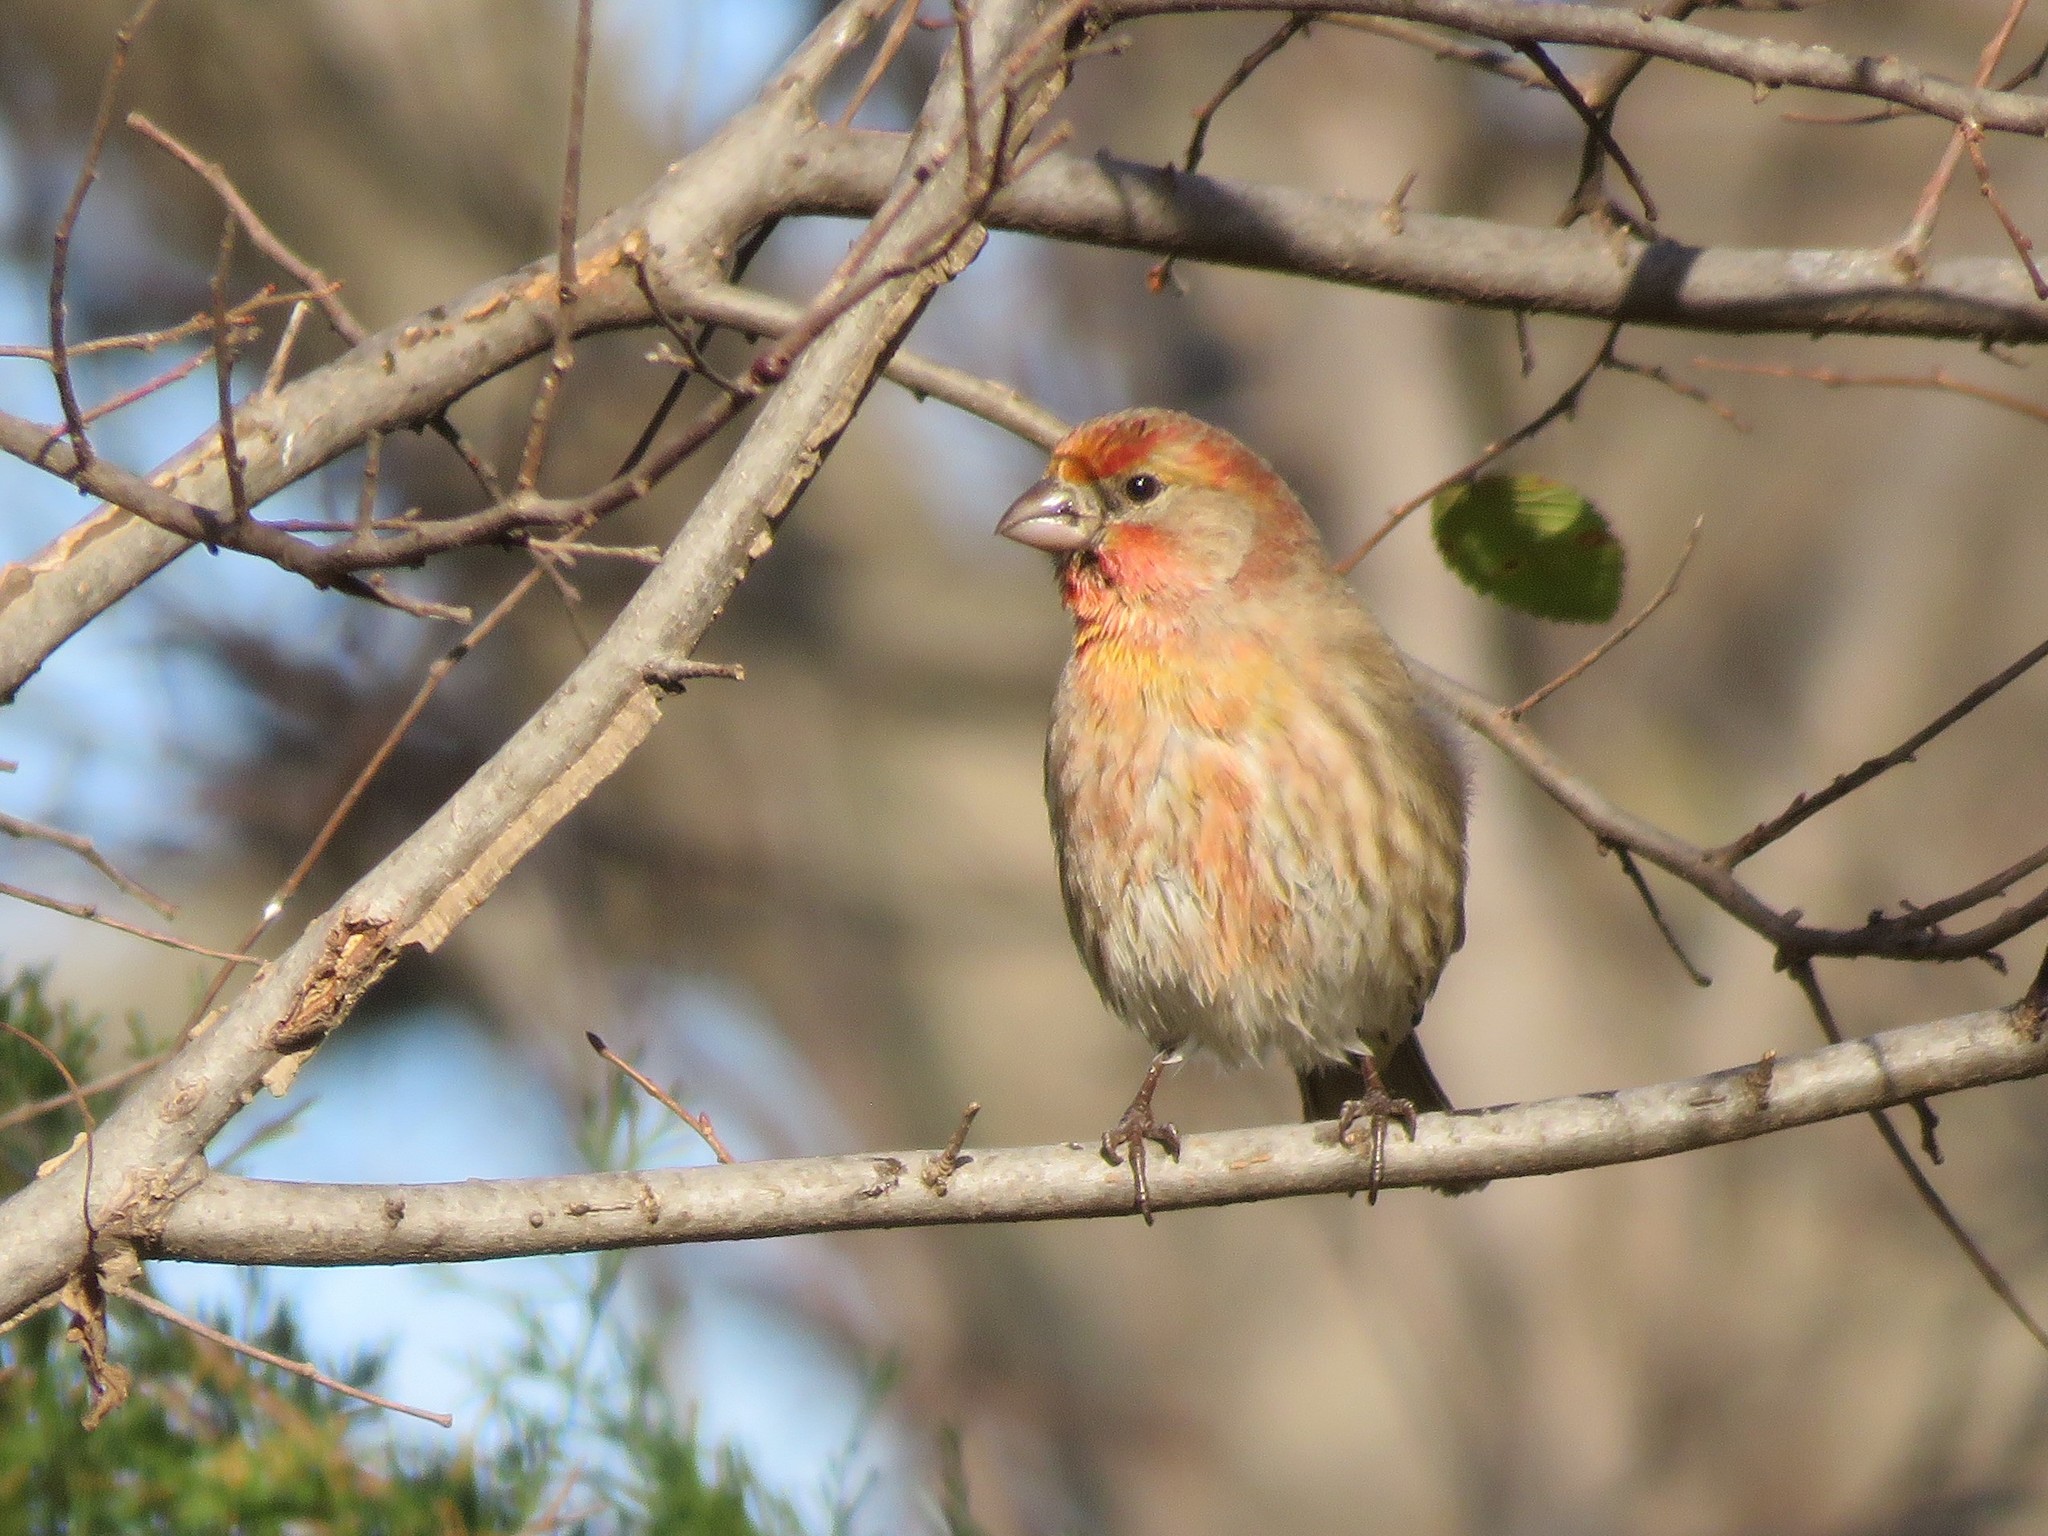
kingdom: Animalia
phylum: Chordata
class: Aves
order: Passeriformes
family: Fringillidae
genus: Haemorhous
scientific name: Haemorhous mexicanus
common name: House finch
